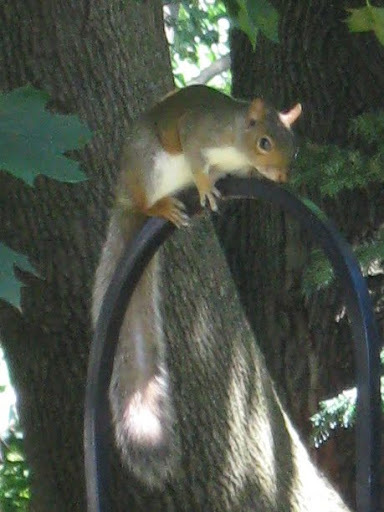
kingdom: Animalia
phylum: Chordata
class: Mammalia
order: Rodentia
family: Sciuridae
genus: Sciurus
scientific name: Sciurus carolinensis
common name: Eastern gray squirrel
